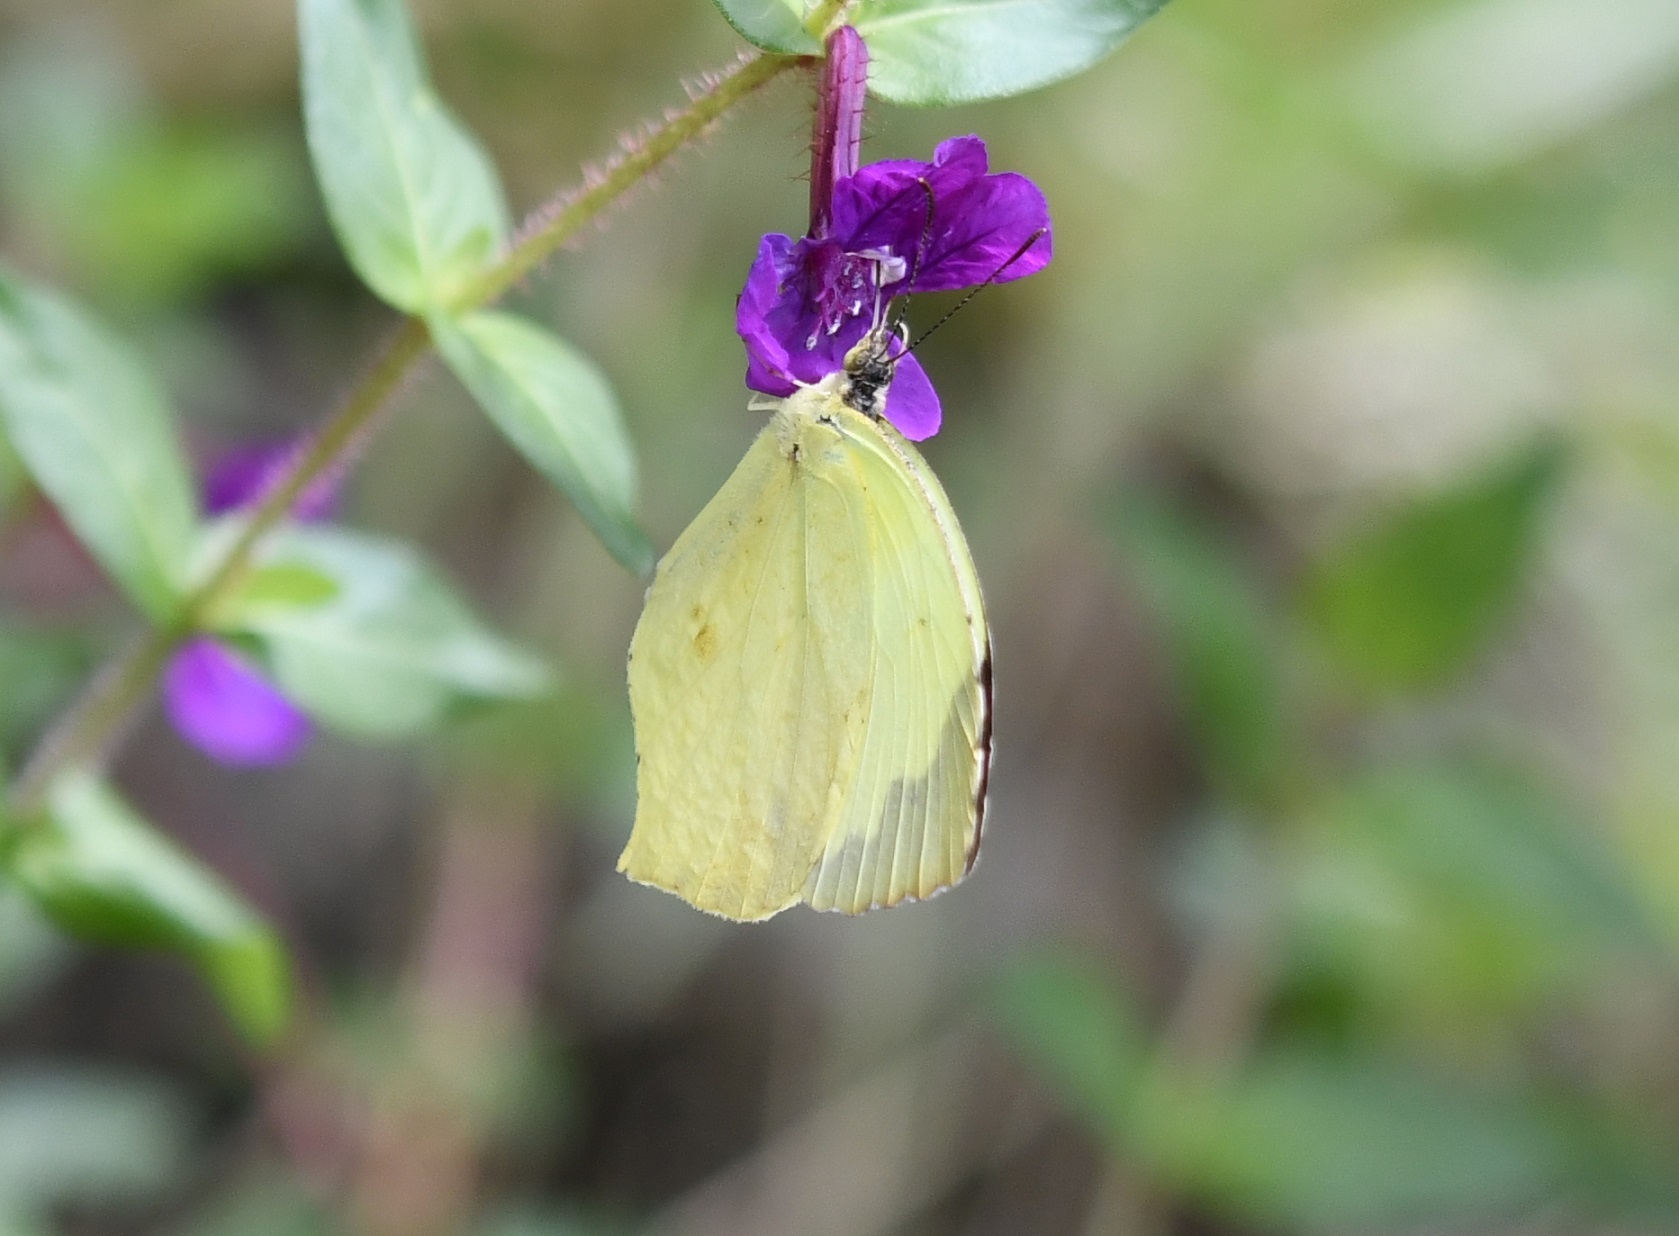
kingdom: Animalia
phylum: Arthropoda
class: Insecta
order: Lepidoptera
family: Pieridae
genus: Abaeis
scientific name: Abaeis mexicana
